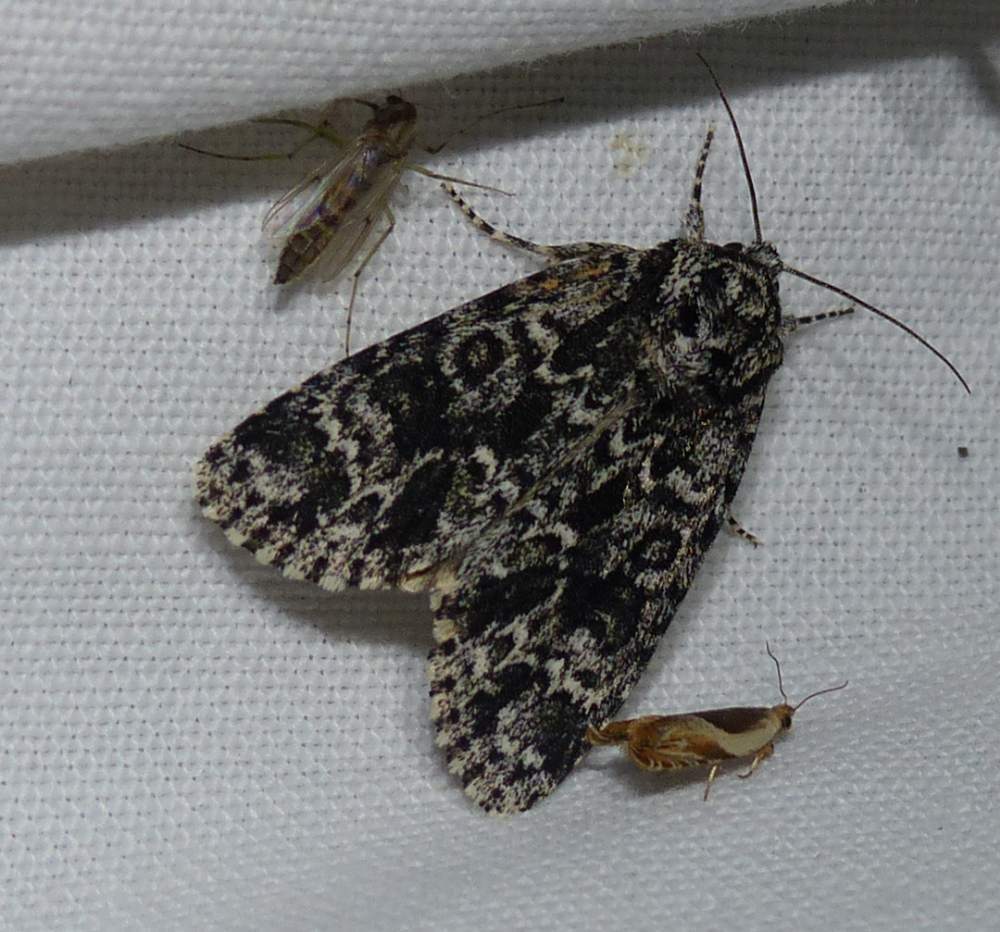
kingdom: Animalia
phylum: Arthropoda
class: Insecta
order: Lepidoptera
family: Noctuidae
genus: Acronicta
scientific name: Acronicta noctivaga
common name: Night-wandering dagger
